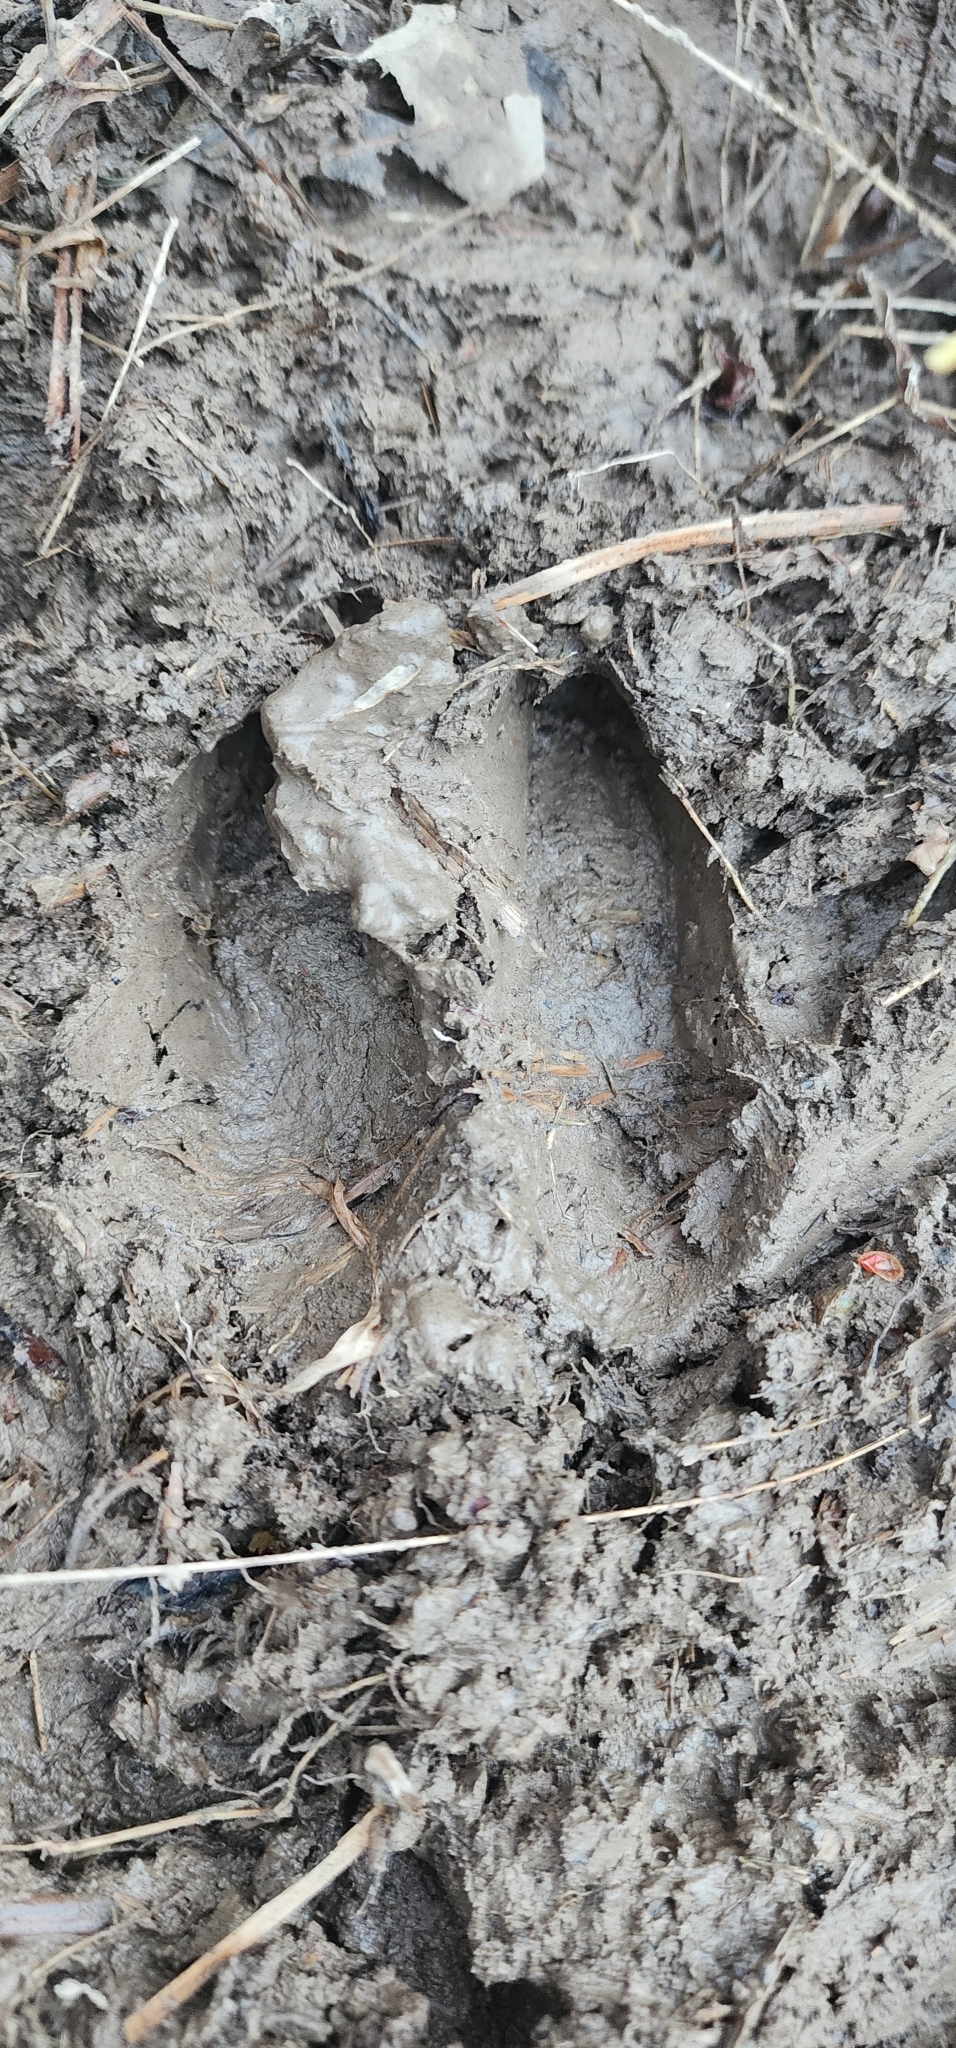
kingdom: Animalia
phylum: Chordata
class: Mammalia
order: Artiodactyla
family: Cervidae
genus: Odocoileus
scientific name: Odocoileus virginianus
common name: White-tailed deer
